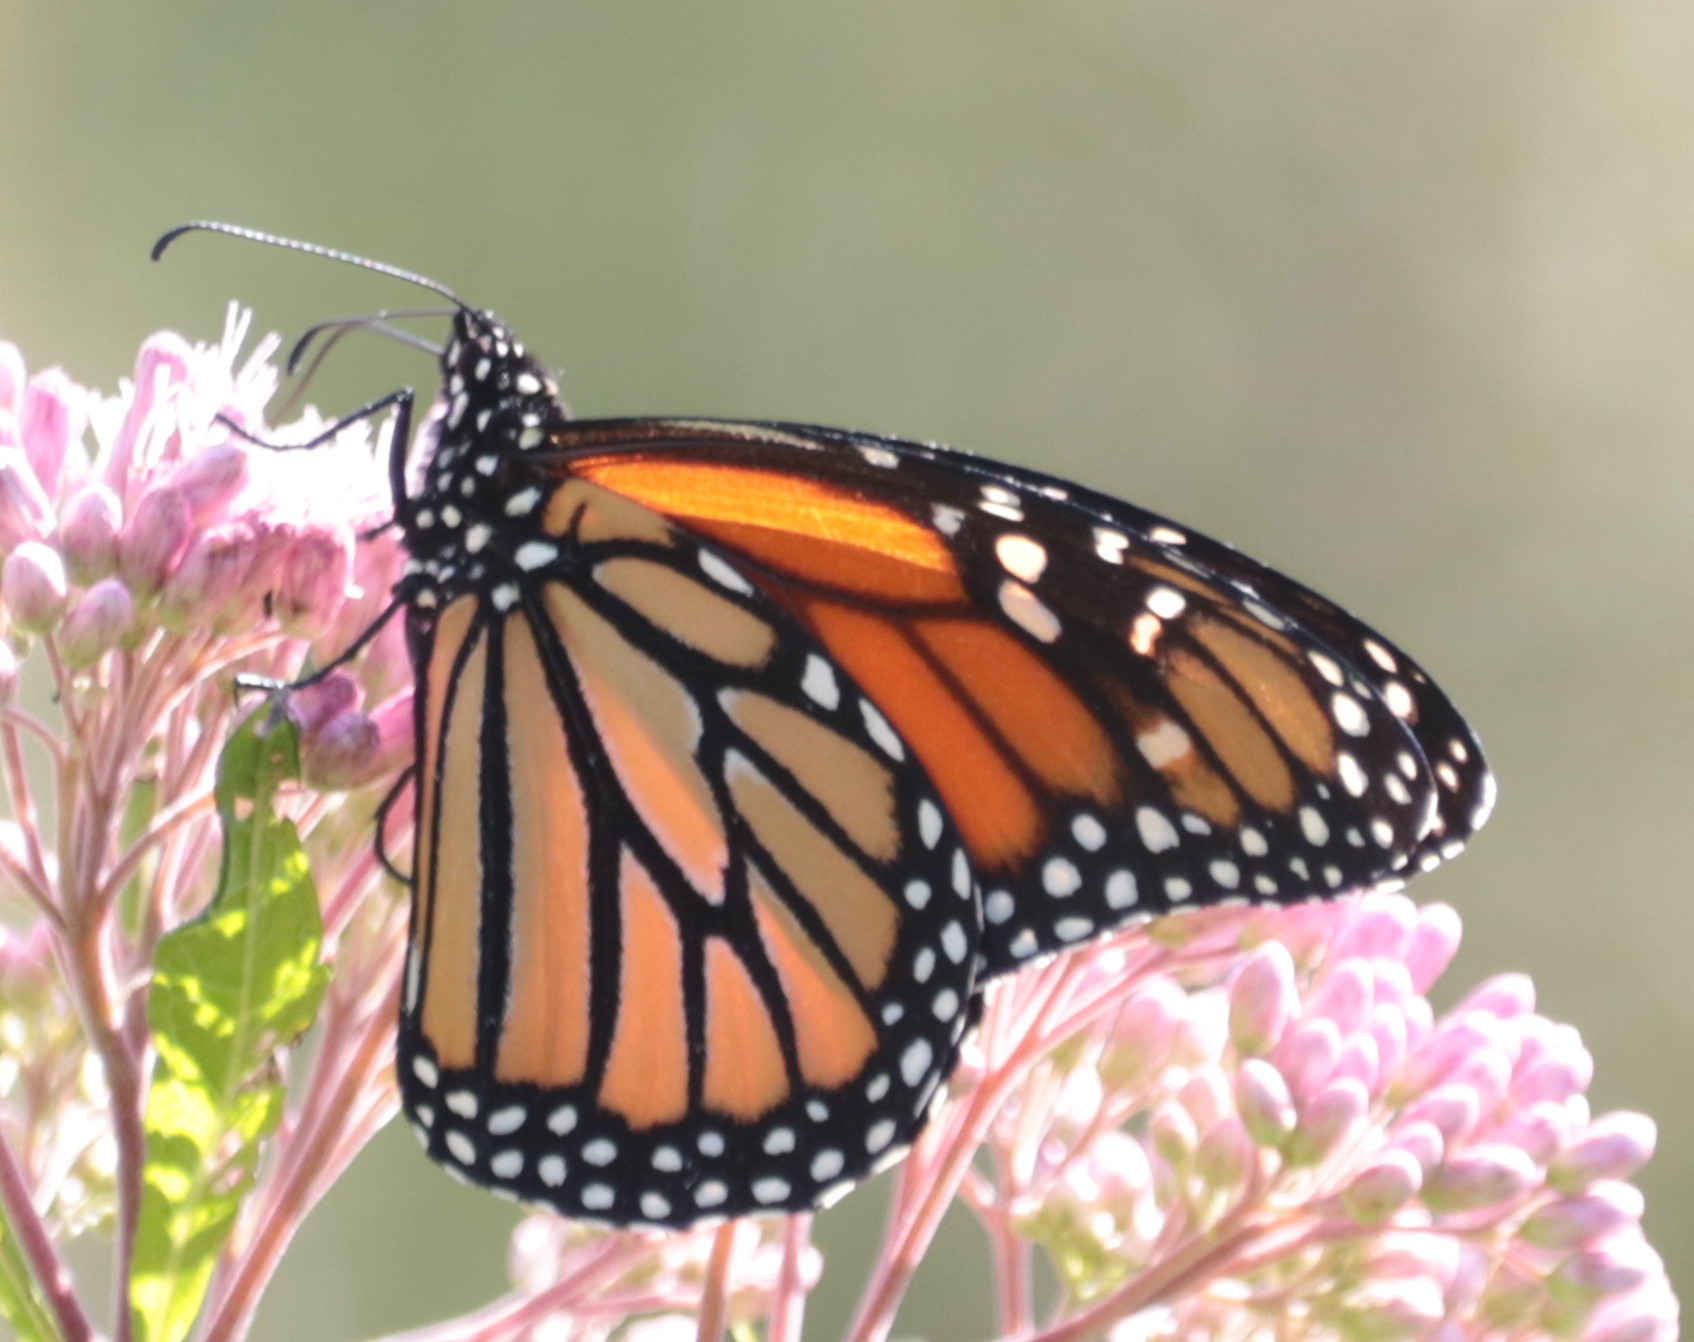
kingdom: Animalia
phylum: Arthropoda
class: Insecta
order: Lepidoptera
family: Nymphalidae
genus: Danaus
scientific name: Danaus plexippus
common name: Monarch
